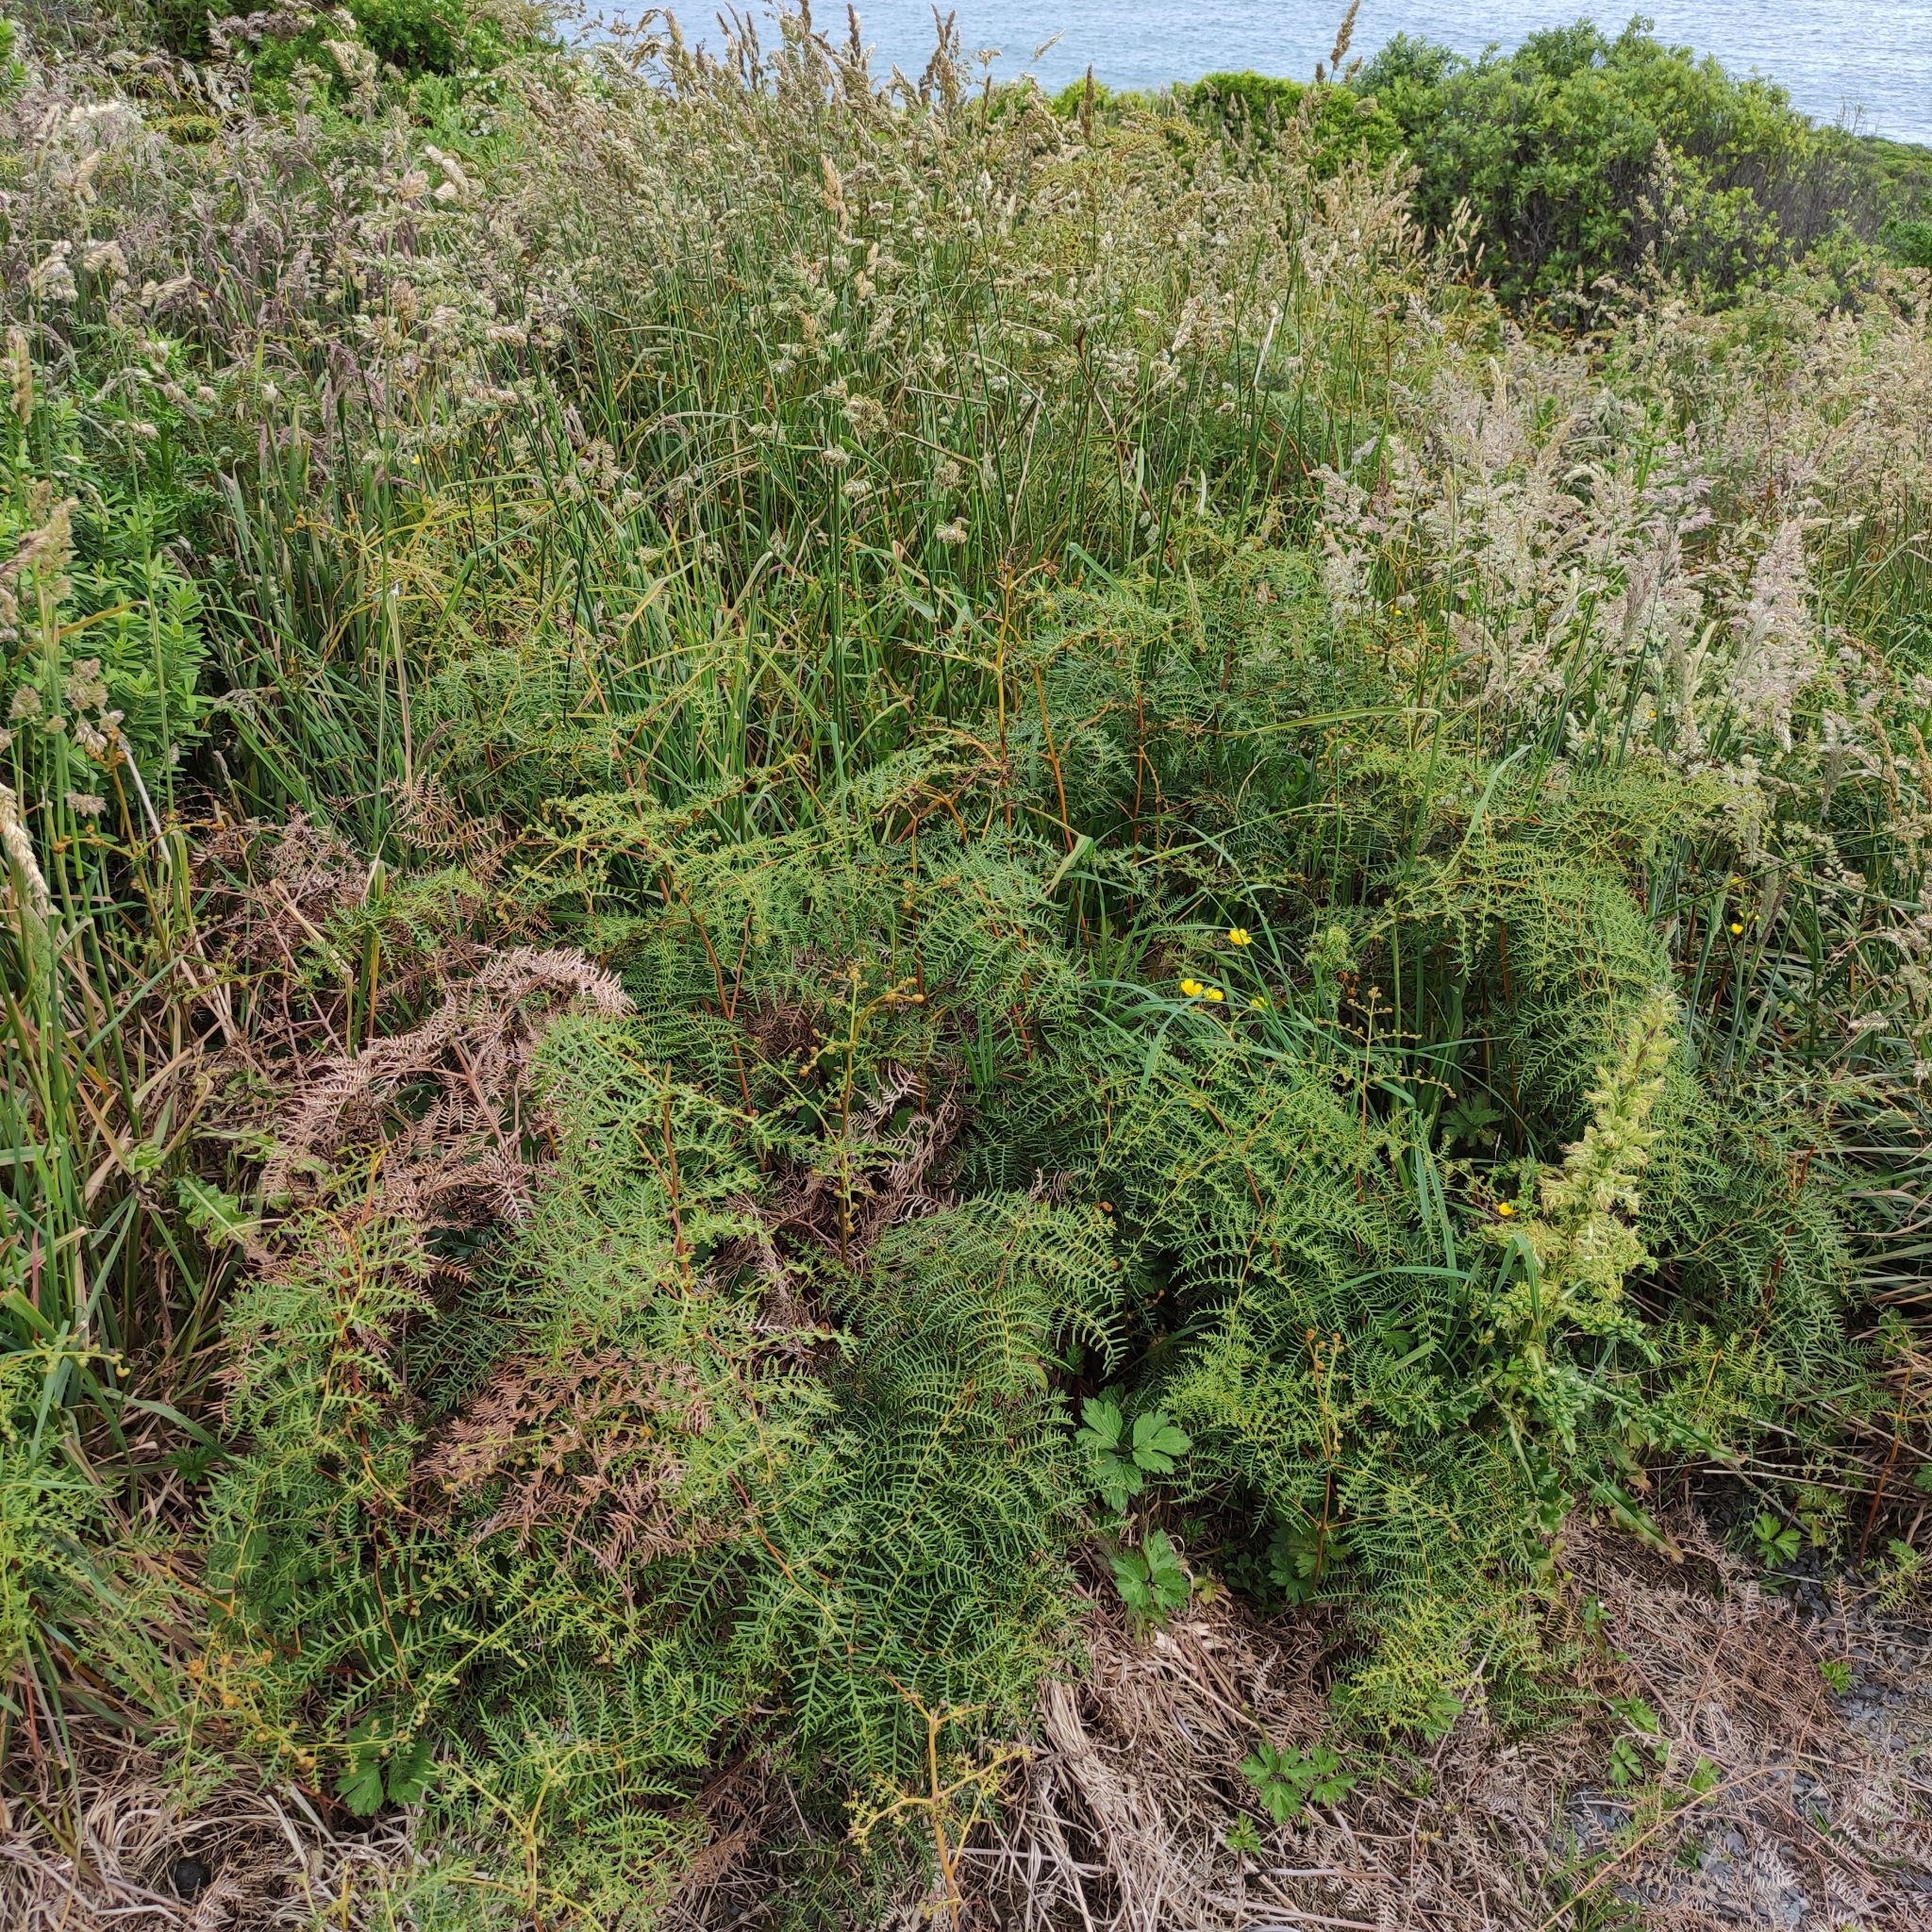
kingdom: Plantae
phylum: Tracheophyta
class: Polypodiopsida
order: Polypodiales
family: Dennstaedtiaceae
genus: Pteridium
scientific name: Pteridium esculentum
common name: Bracken fern
